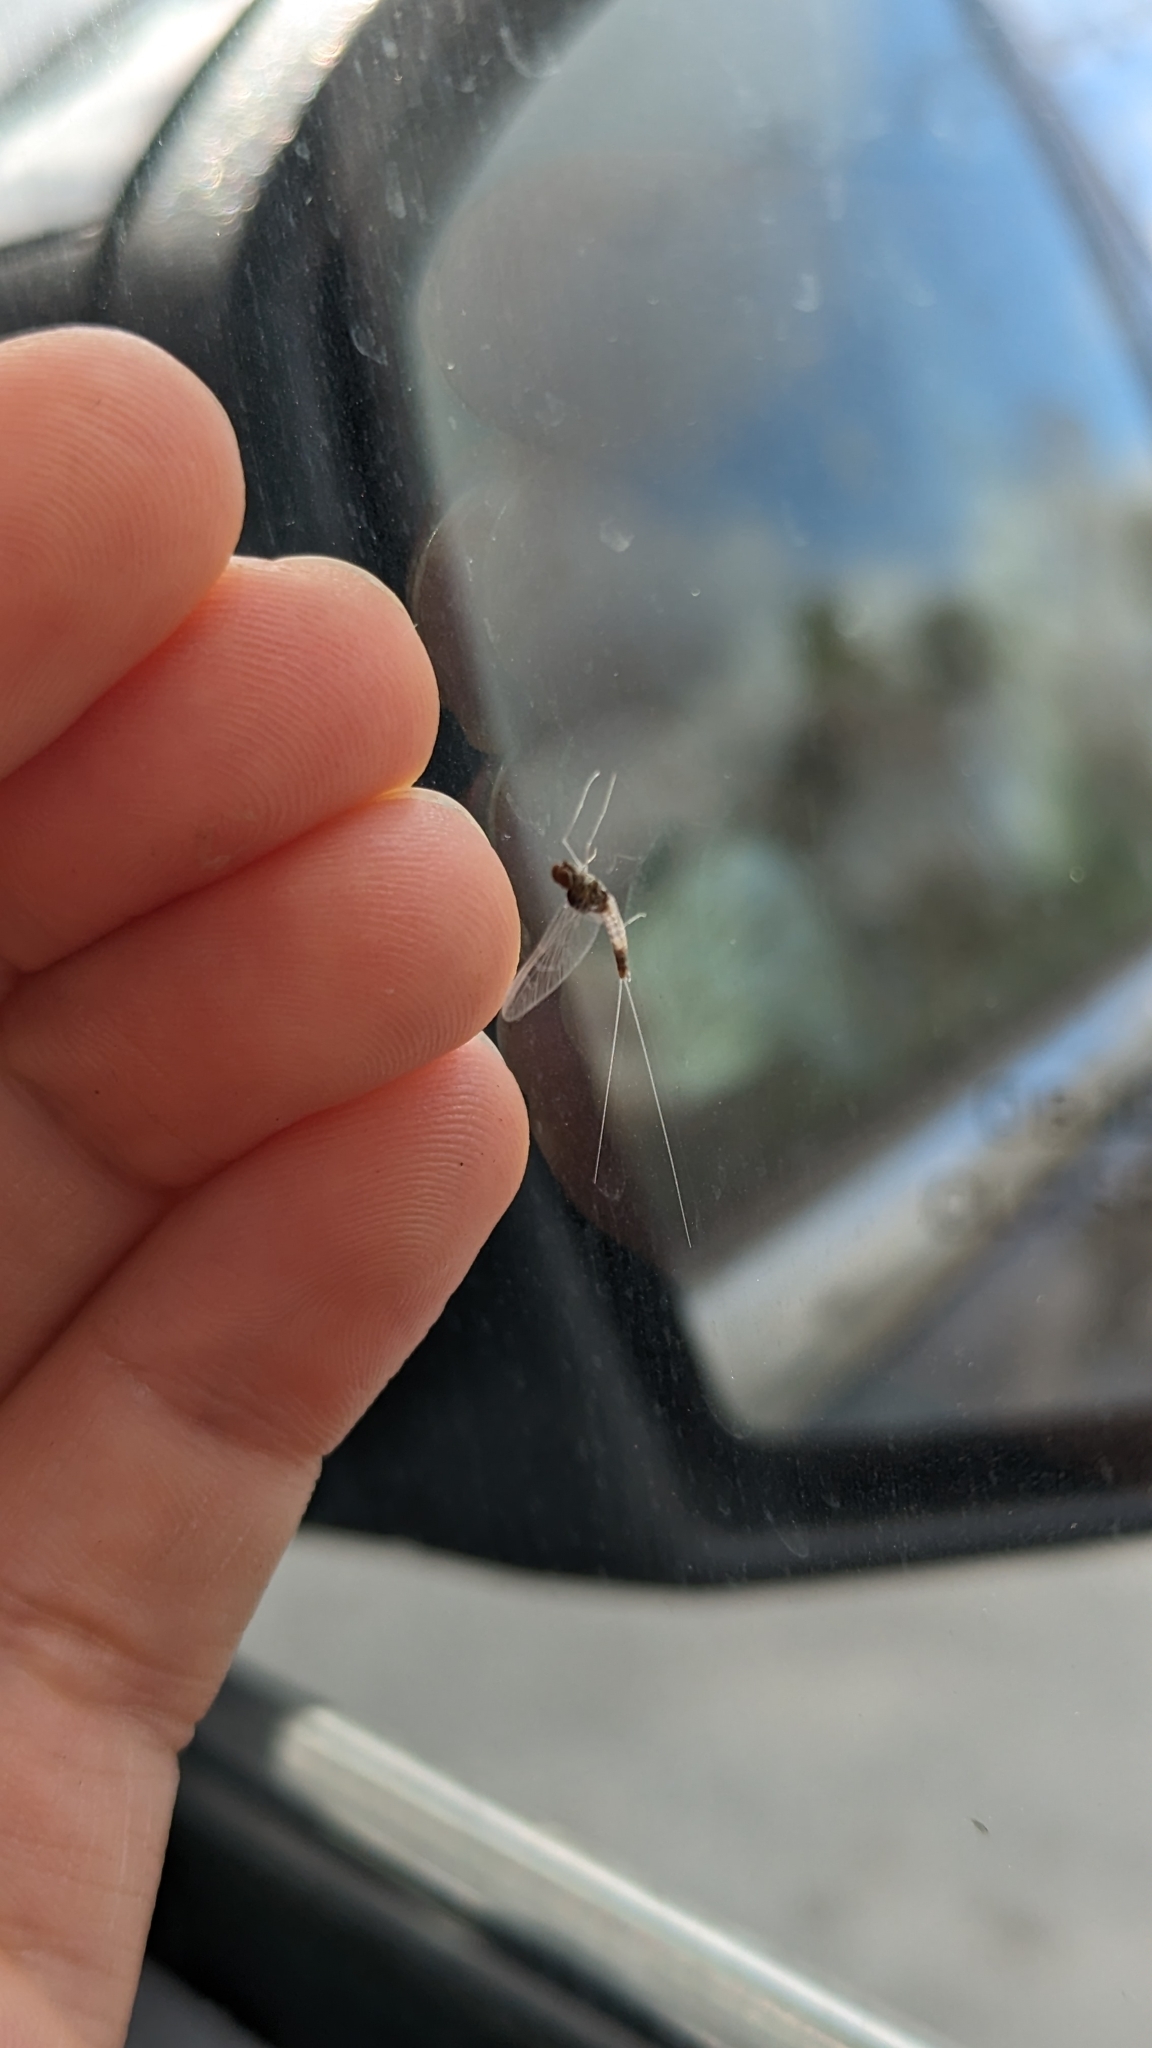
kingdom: Animalia
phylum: Arthropoda
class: Insecta
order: Ephemeroptera
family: Baetidae
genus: Baetis
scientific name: Baetis intercalaris
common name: Small eastern blue-winged olive
